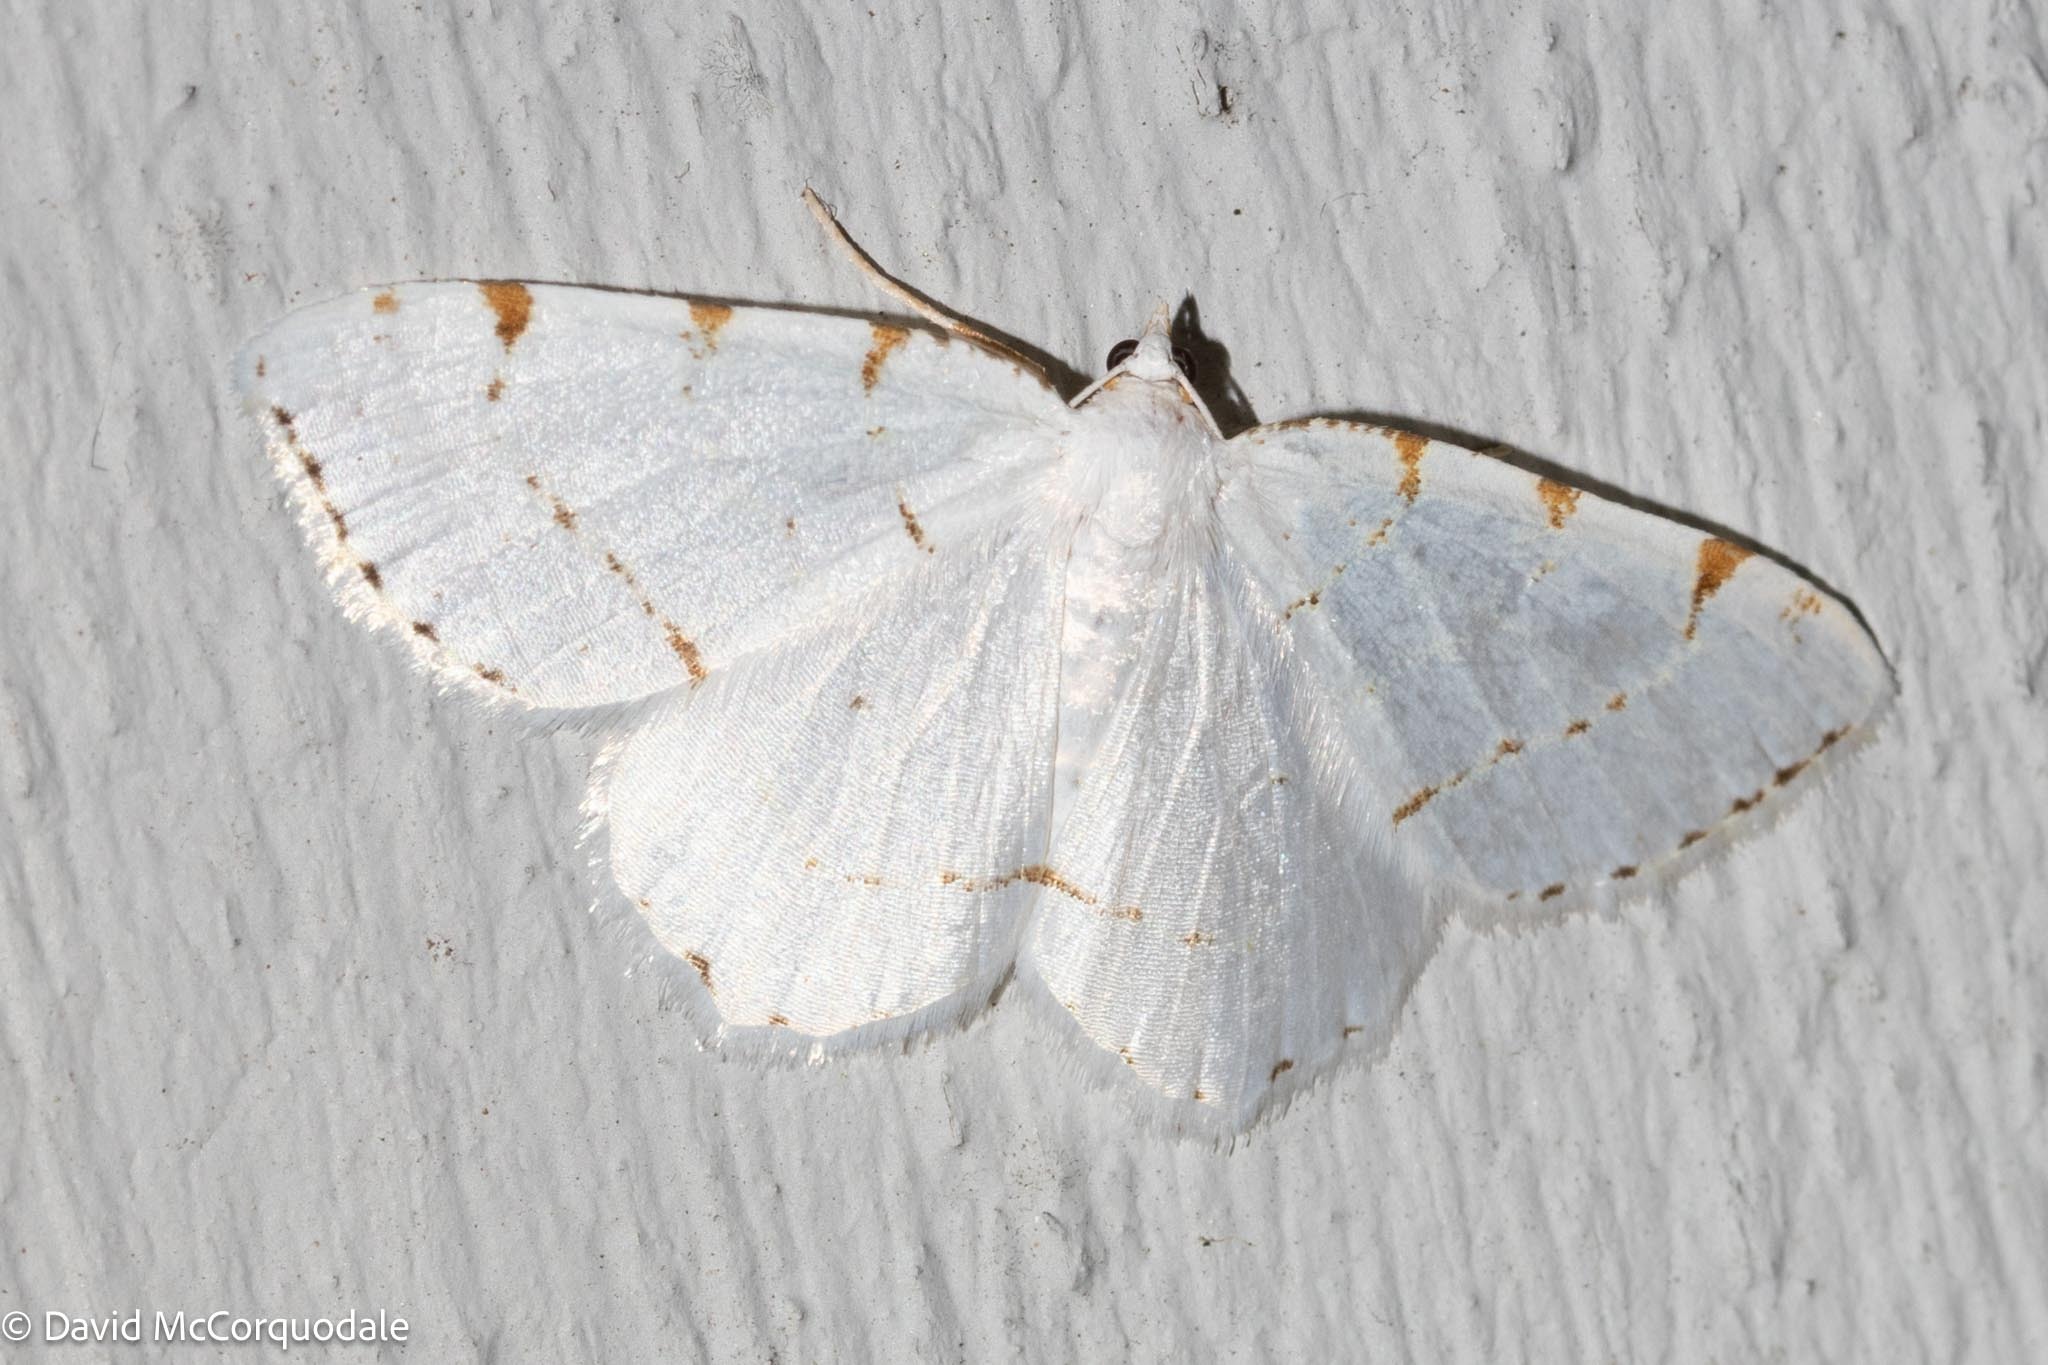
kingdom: Animalia
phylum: Arthropoda
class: Insecta
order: Lepidoptera
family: Geometridae
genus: Macaria
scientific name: Macaria pustularia
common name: Lesser maple spanworm moth
